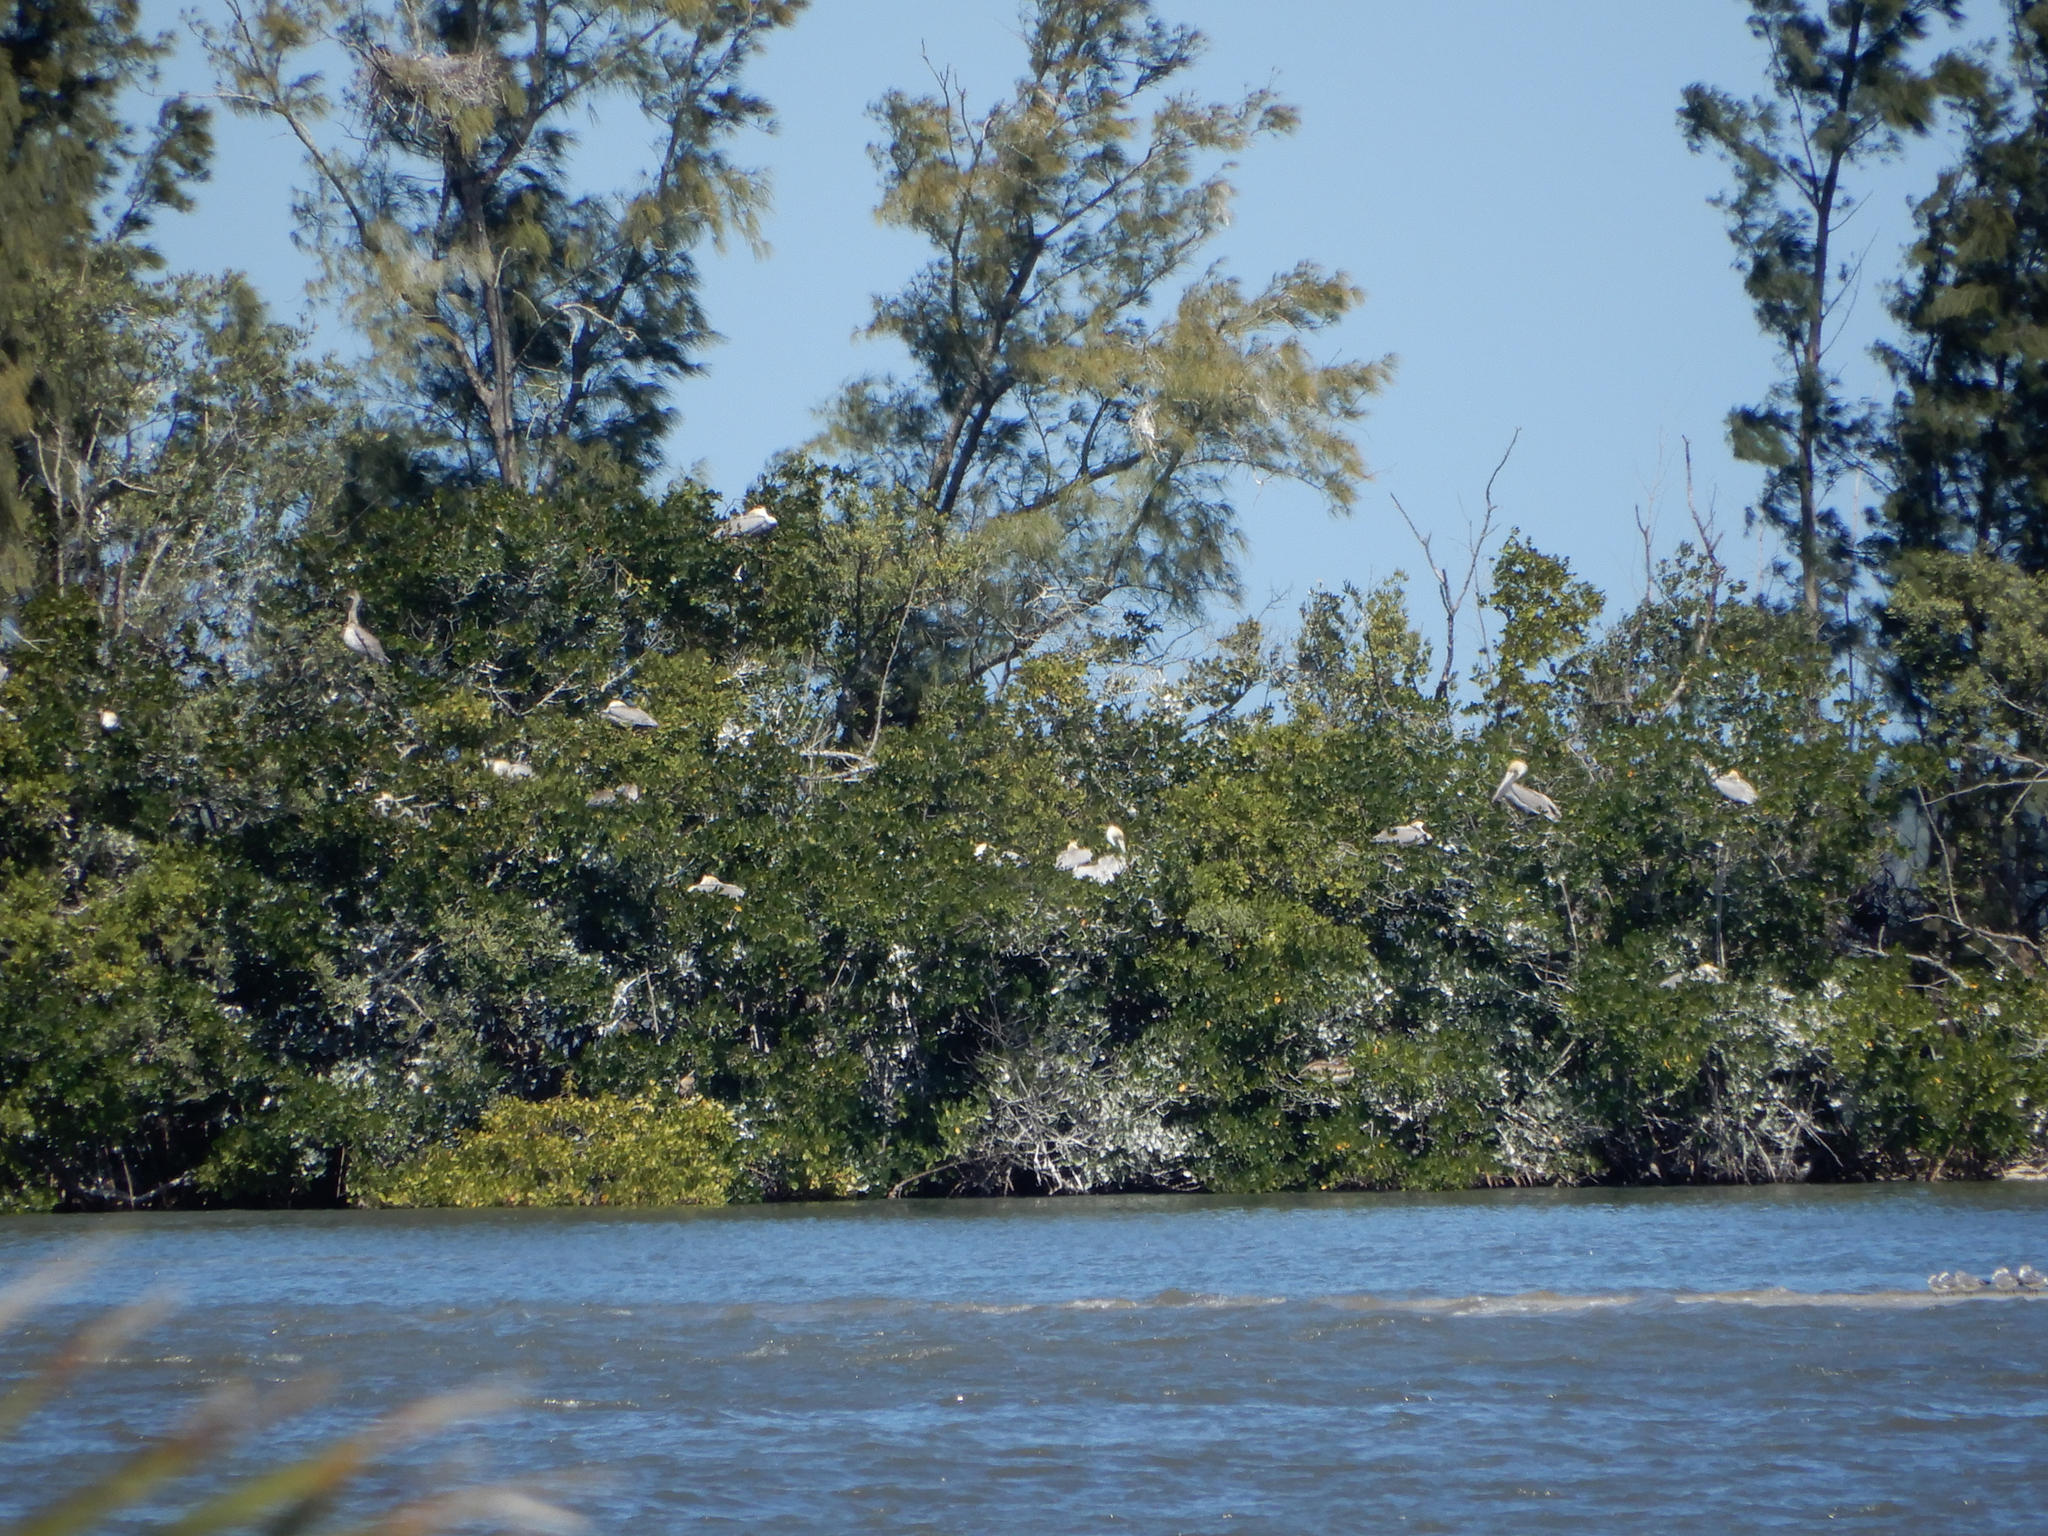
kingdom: Animalia
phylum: Chordata
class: Aves
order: Pelecaniformes
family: Pelecanidae
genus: Pelecanus
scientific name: Pelecanus occidentalis
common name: Brown pelican
